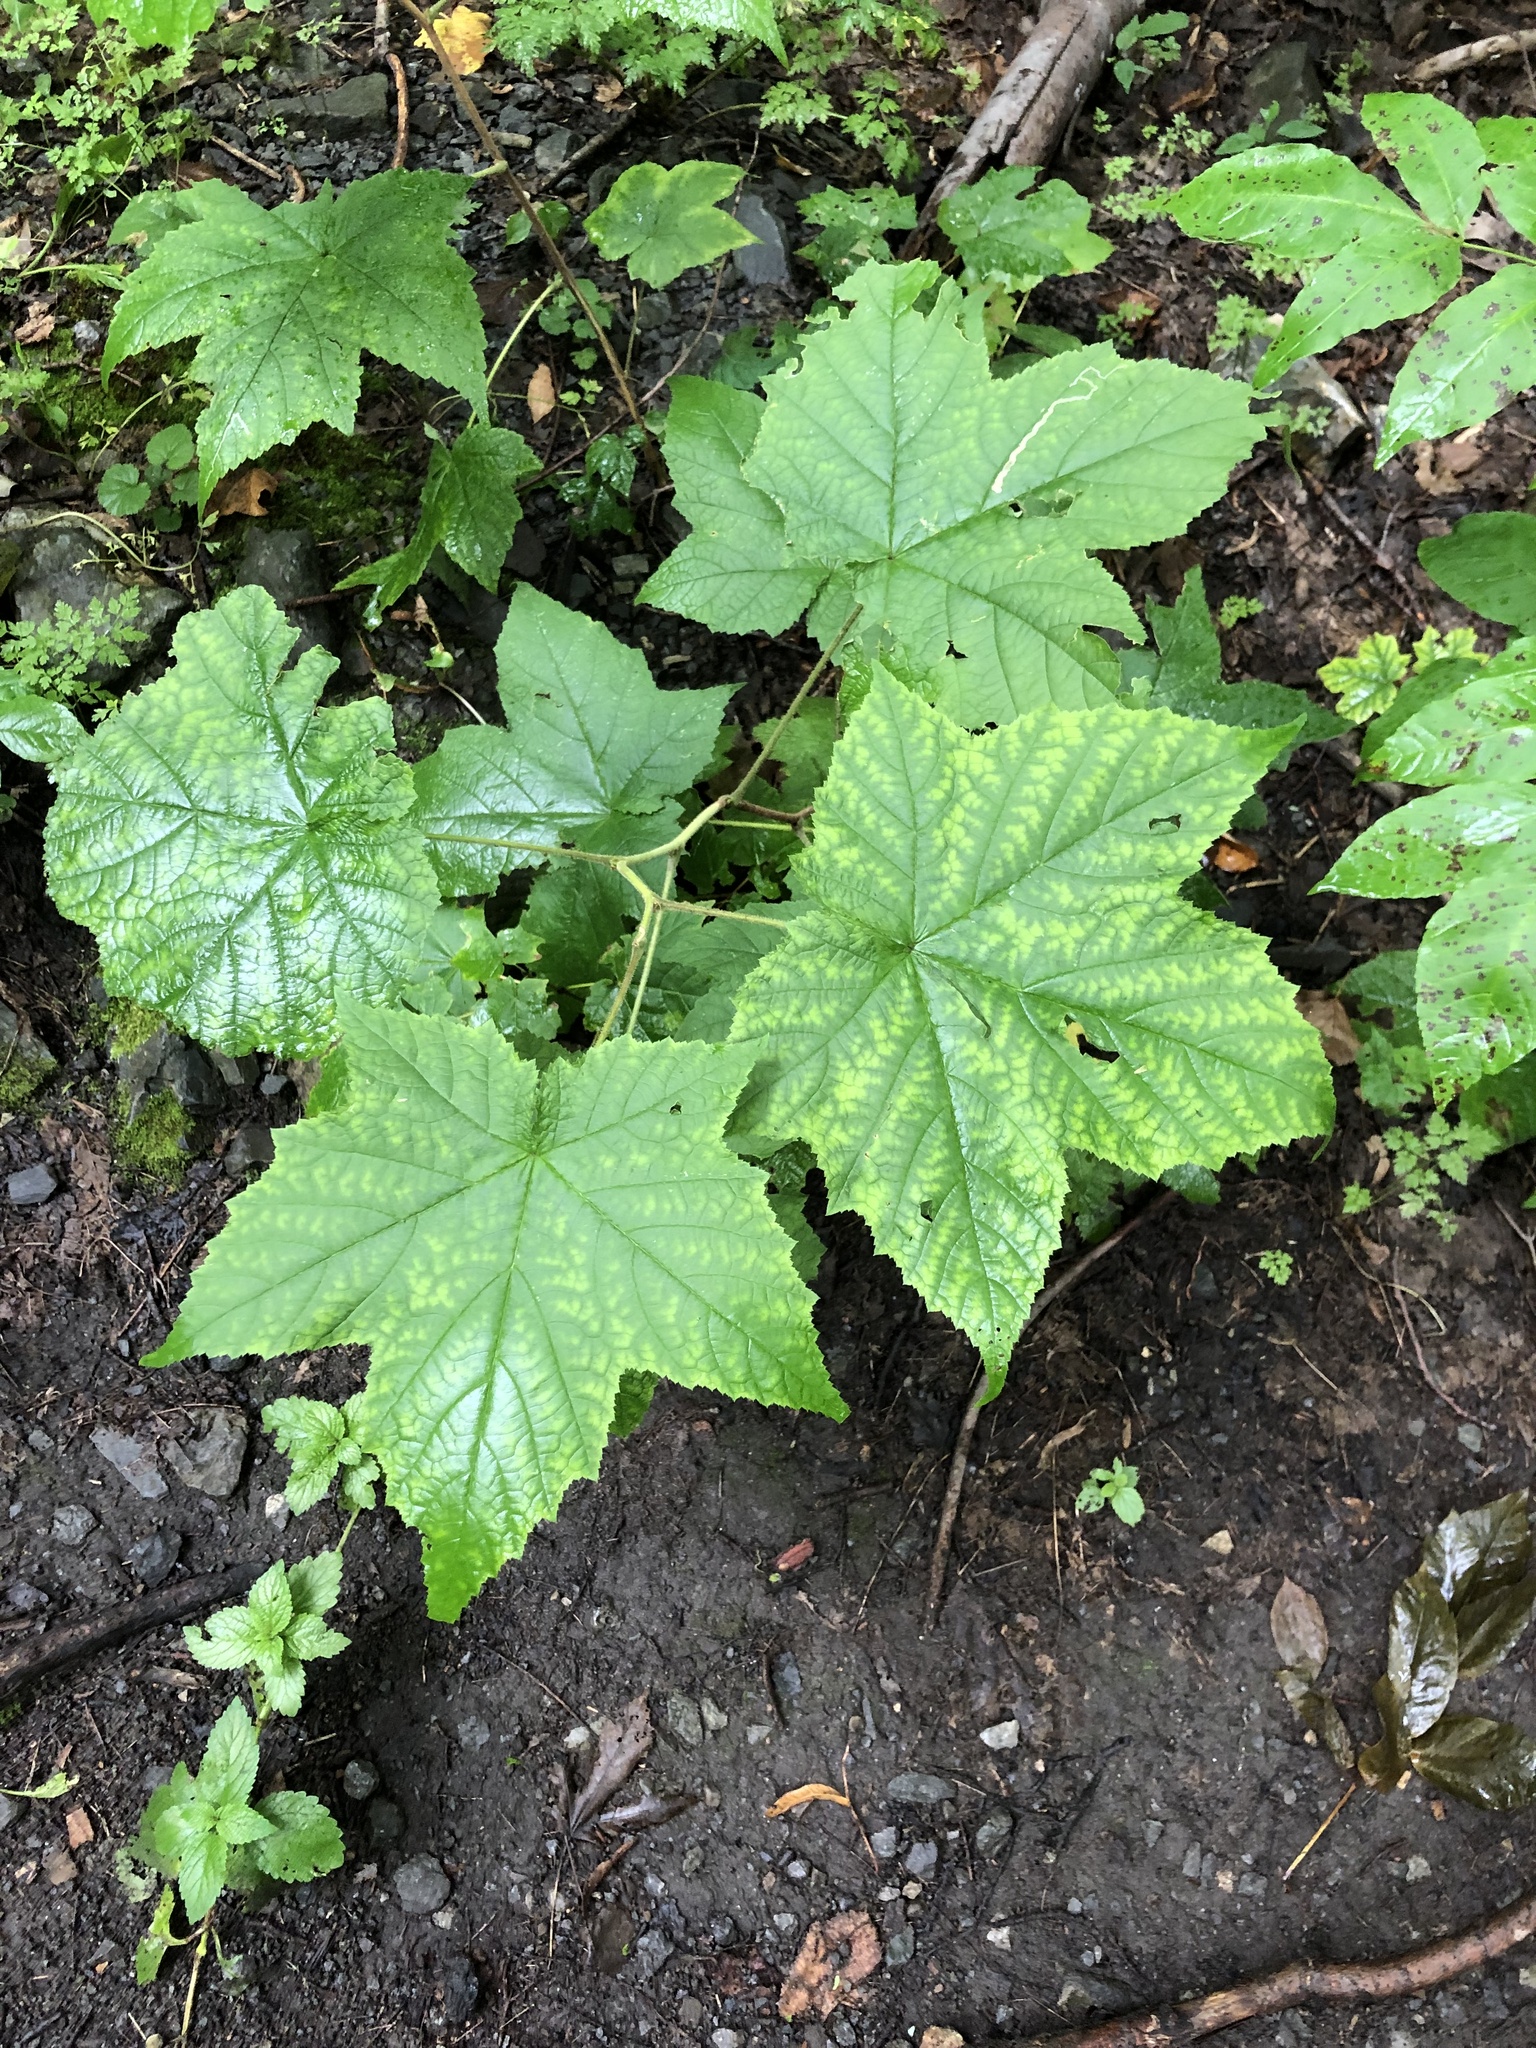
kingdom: Plantae
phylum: Tracheophyta
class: Magnoliopsida
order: Rosales
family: Rosaceae
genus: Rubus
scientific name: Rubus odoratus
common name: Purple-flowered raspberry
